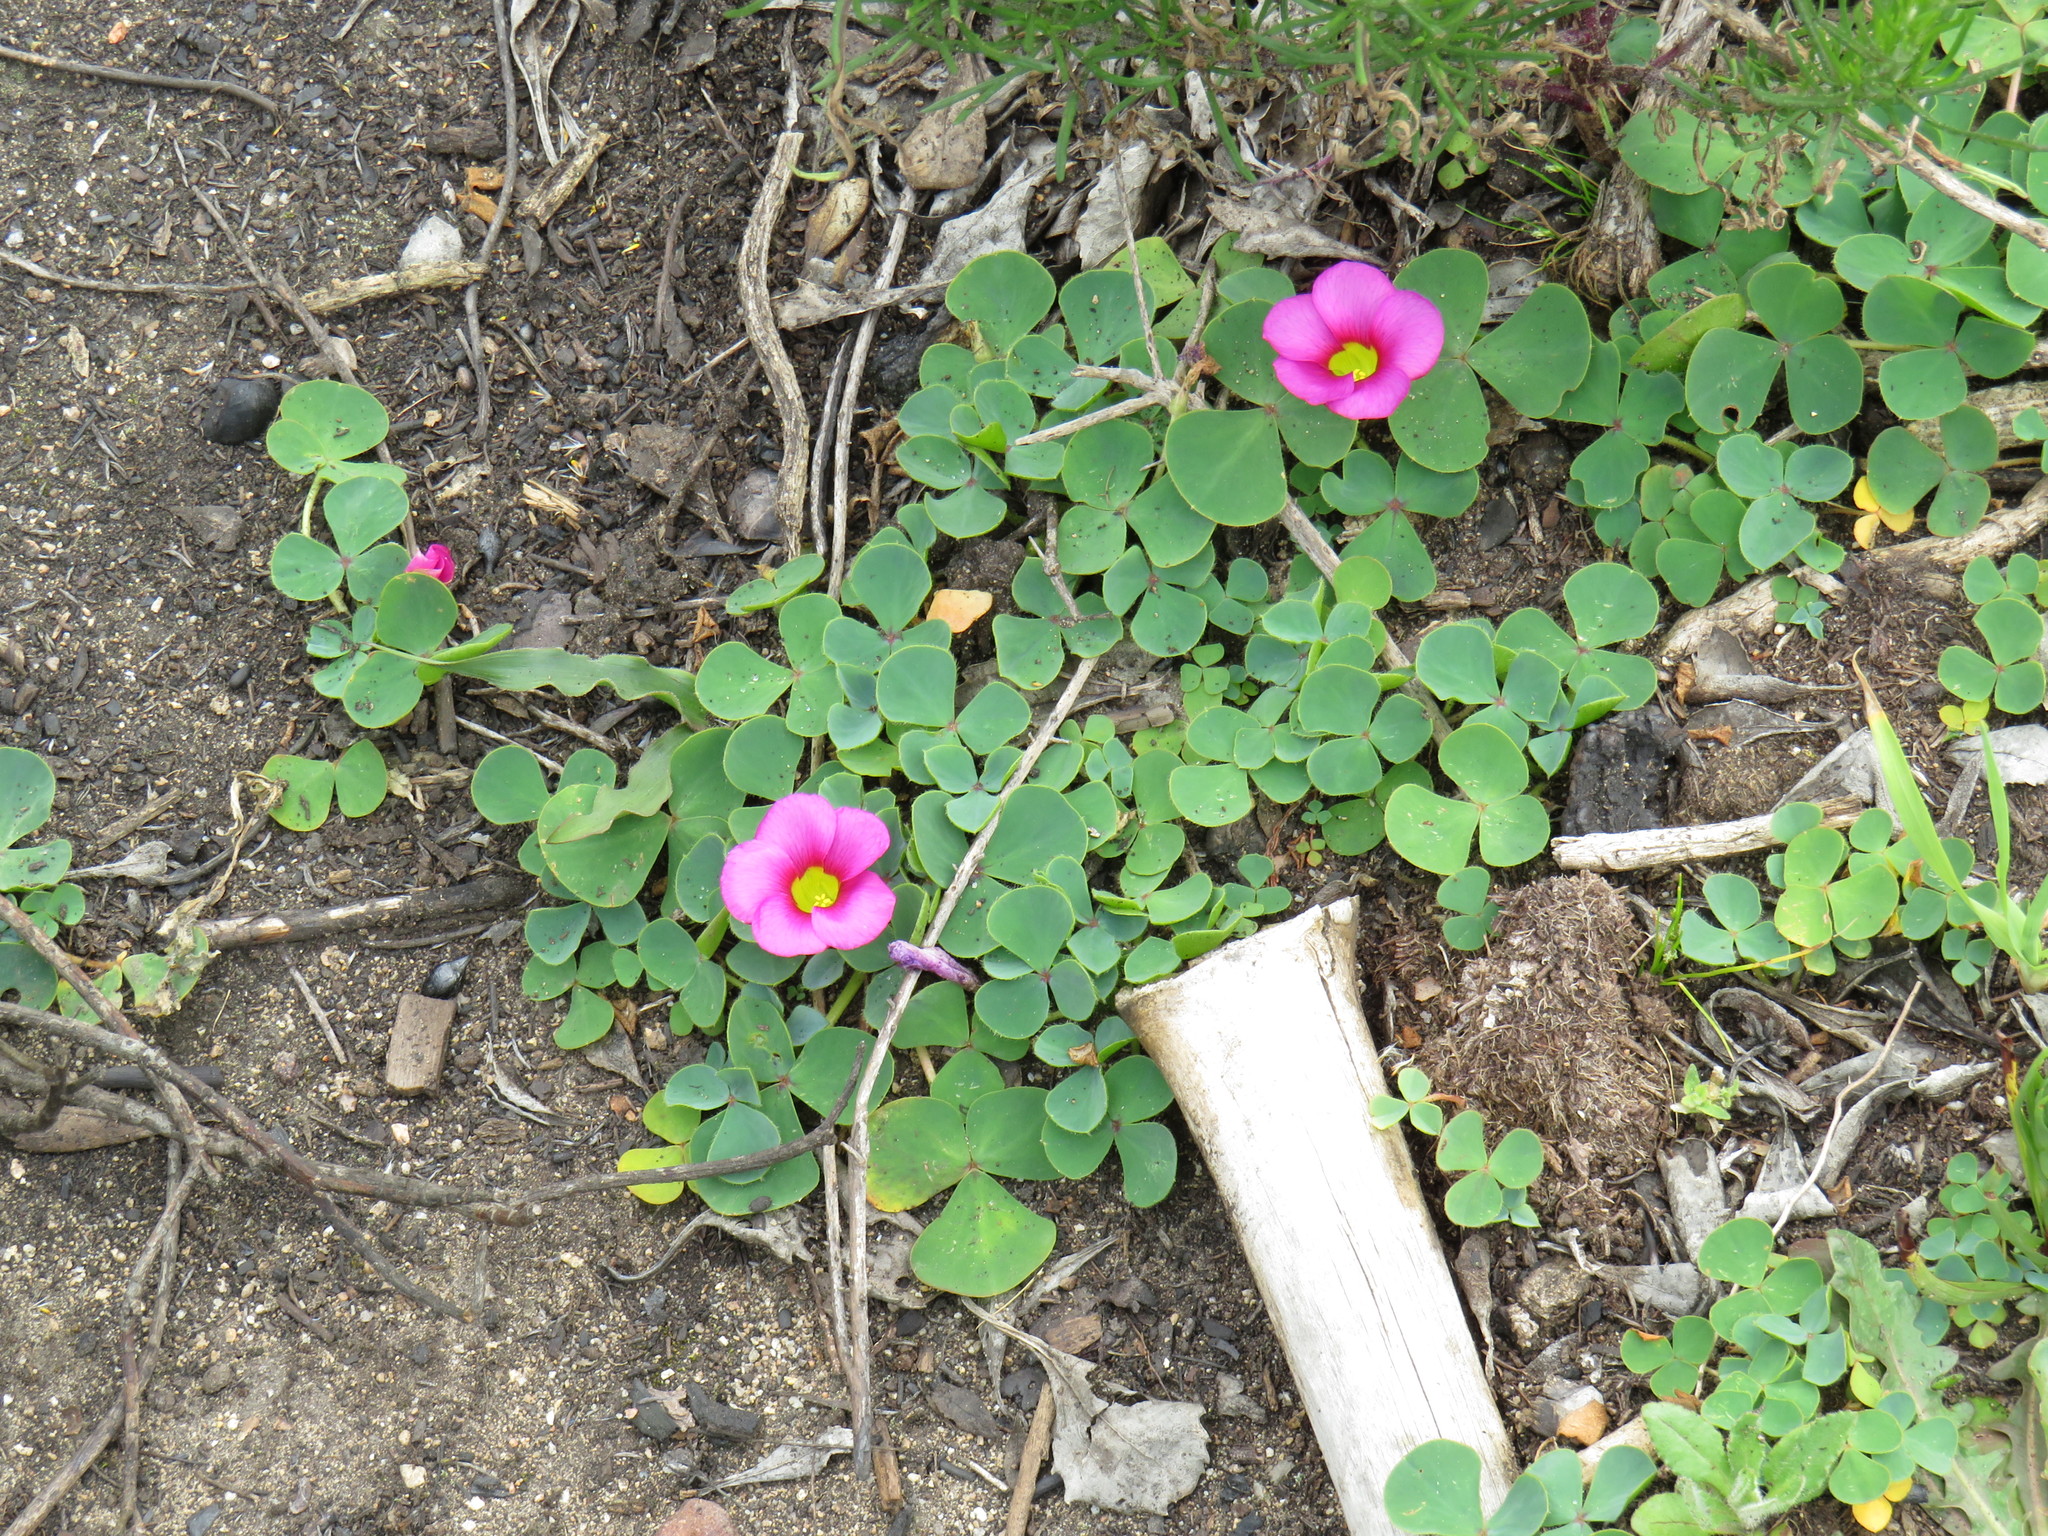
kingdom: Plantae
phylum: Tracheophyta
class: Magnoliopsida
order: Oxalidales
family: Oxalidaceae
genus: Oxalis
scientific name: Oxalis purpurea
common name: Purple woodsorrel
